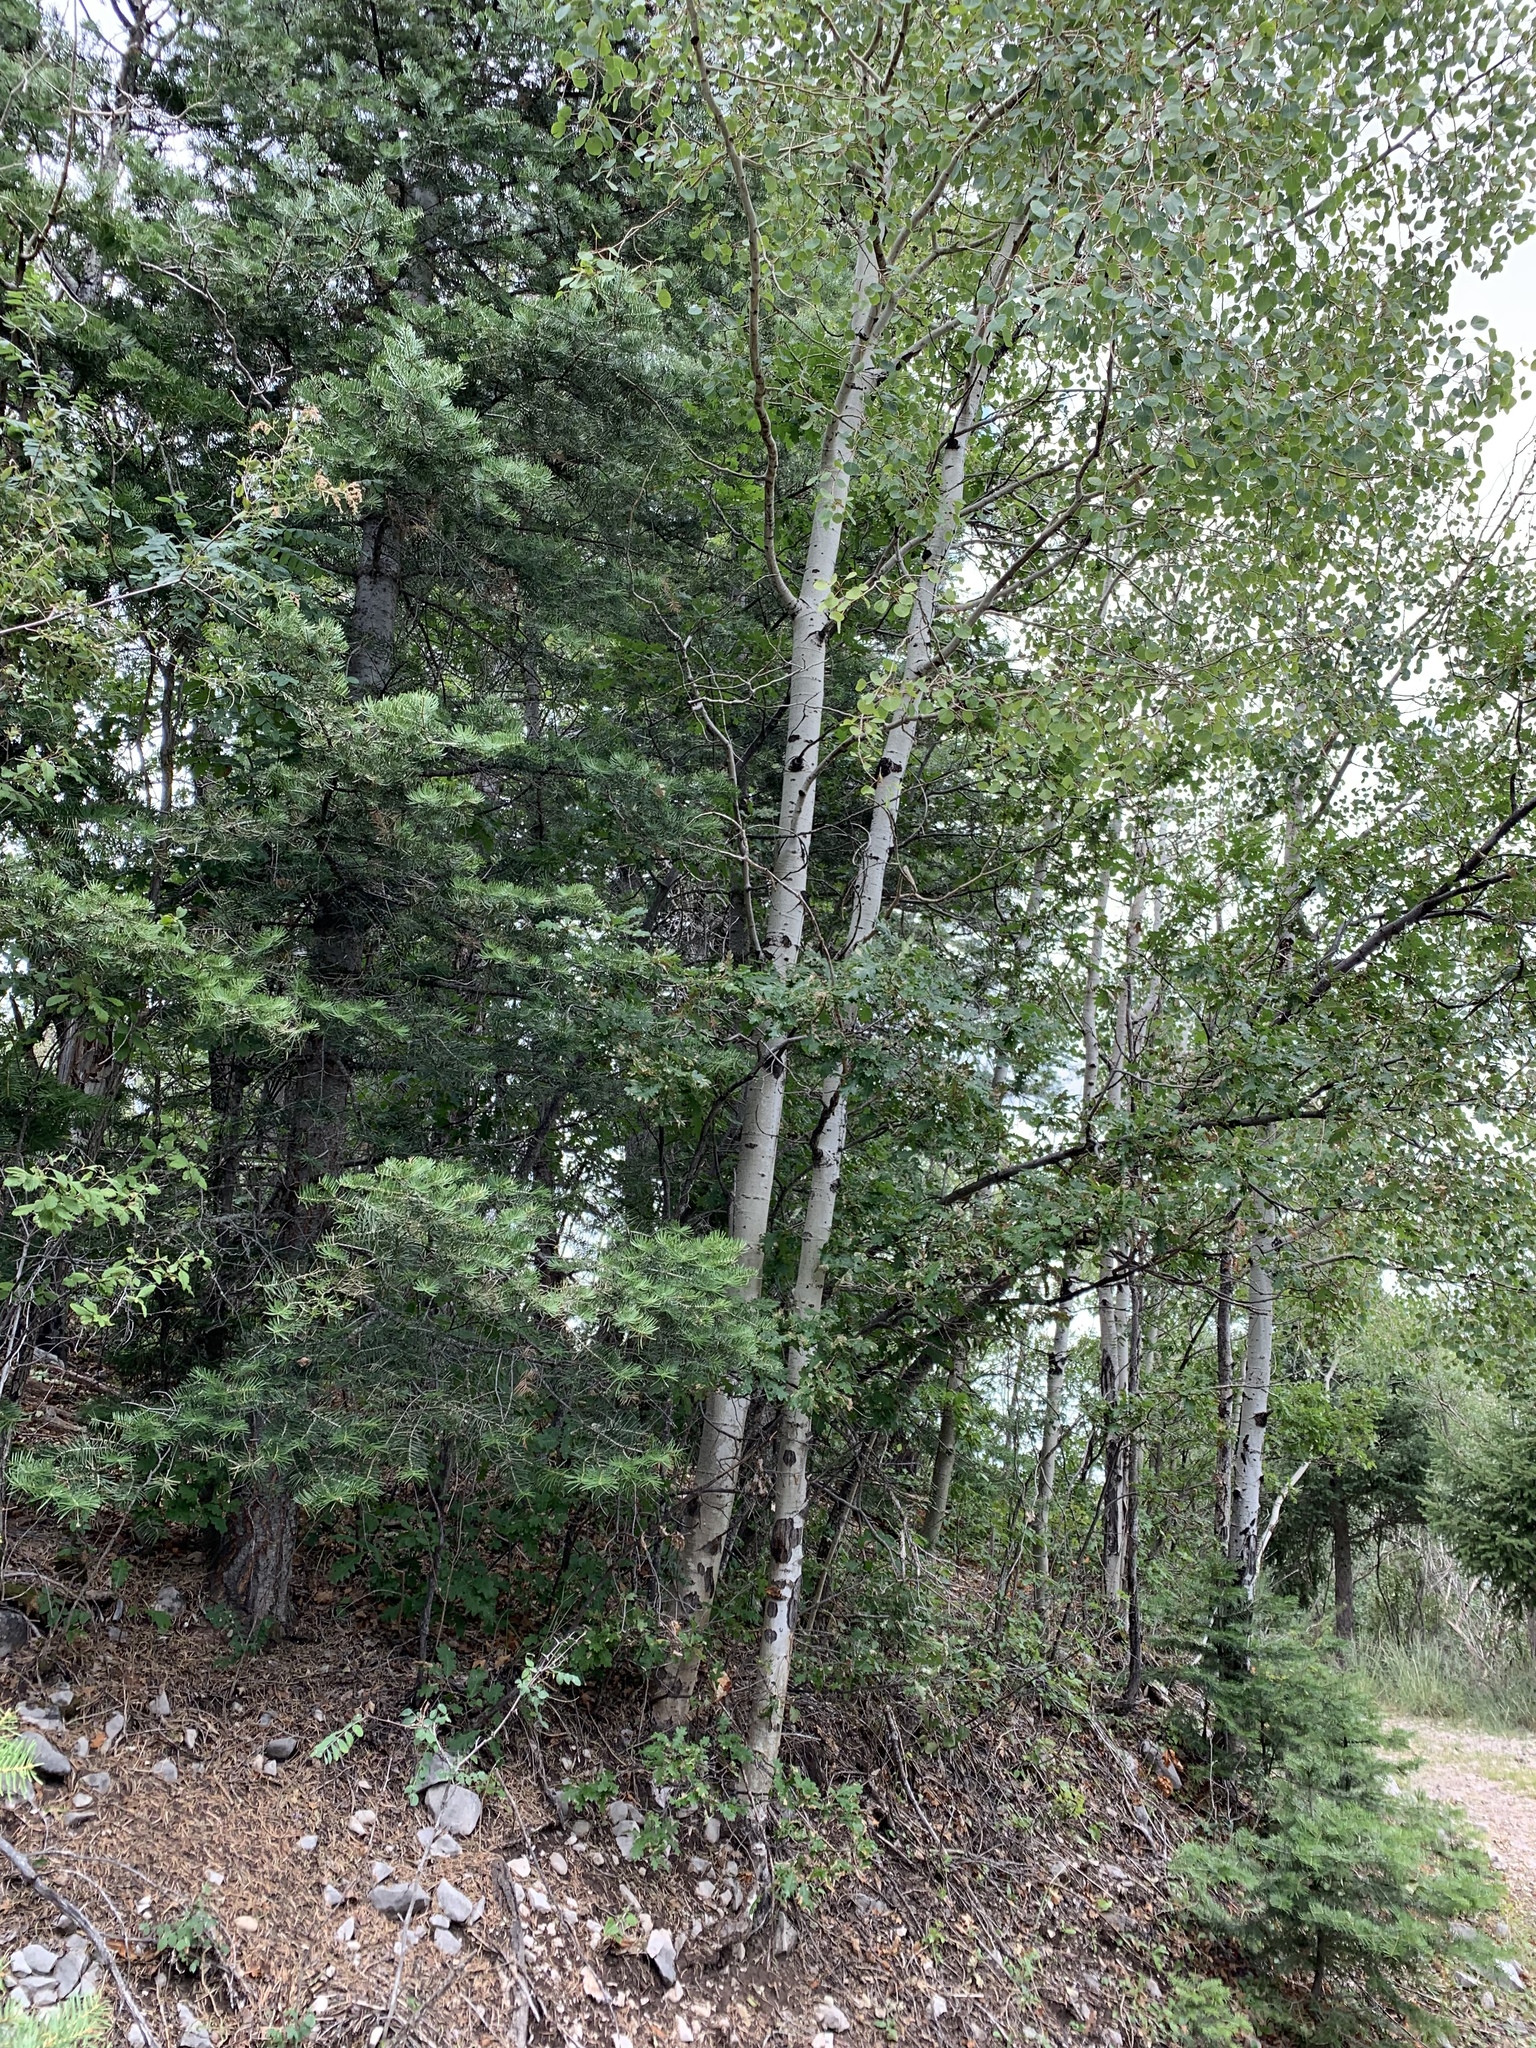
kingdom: Plantae
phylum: Tracheophyta
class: Magnoliopsida
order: Malpighiales
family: Salicaceae
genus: Populus
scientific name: Populus tremuloides
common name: Quaking aspen
